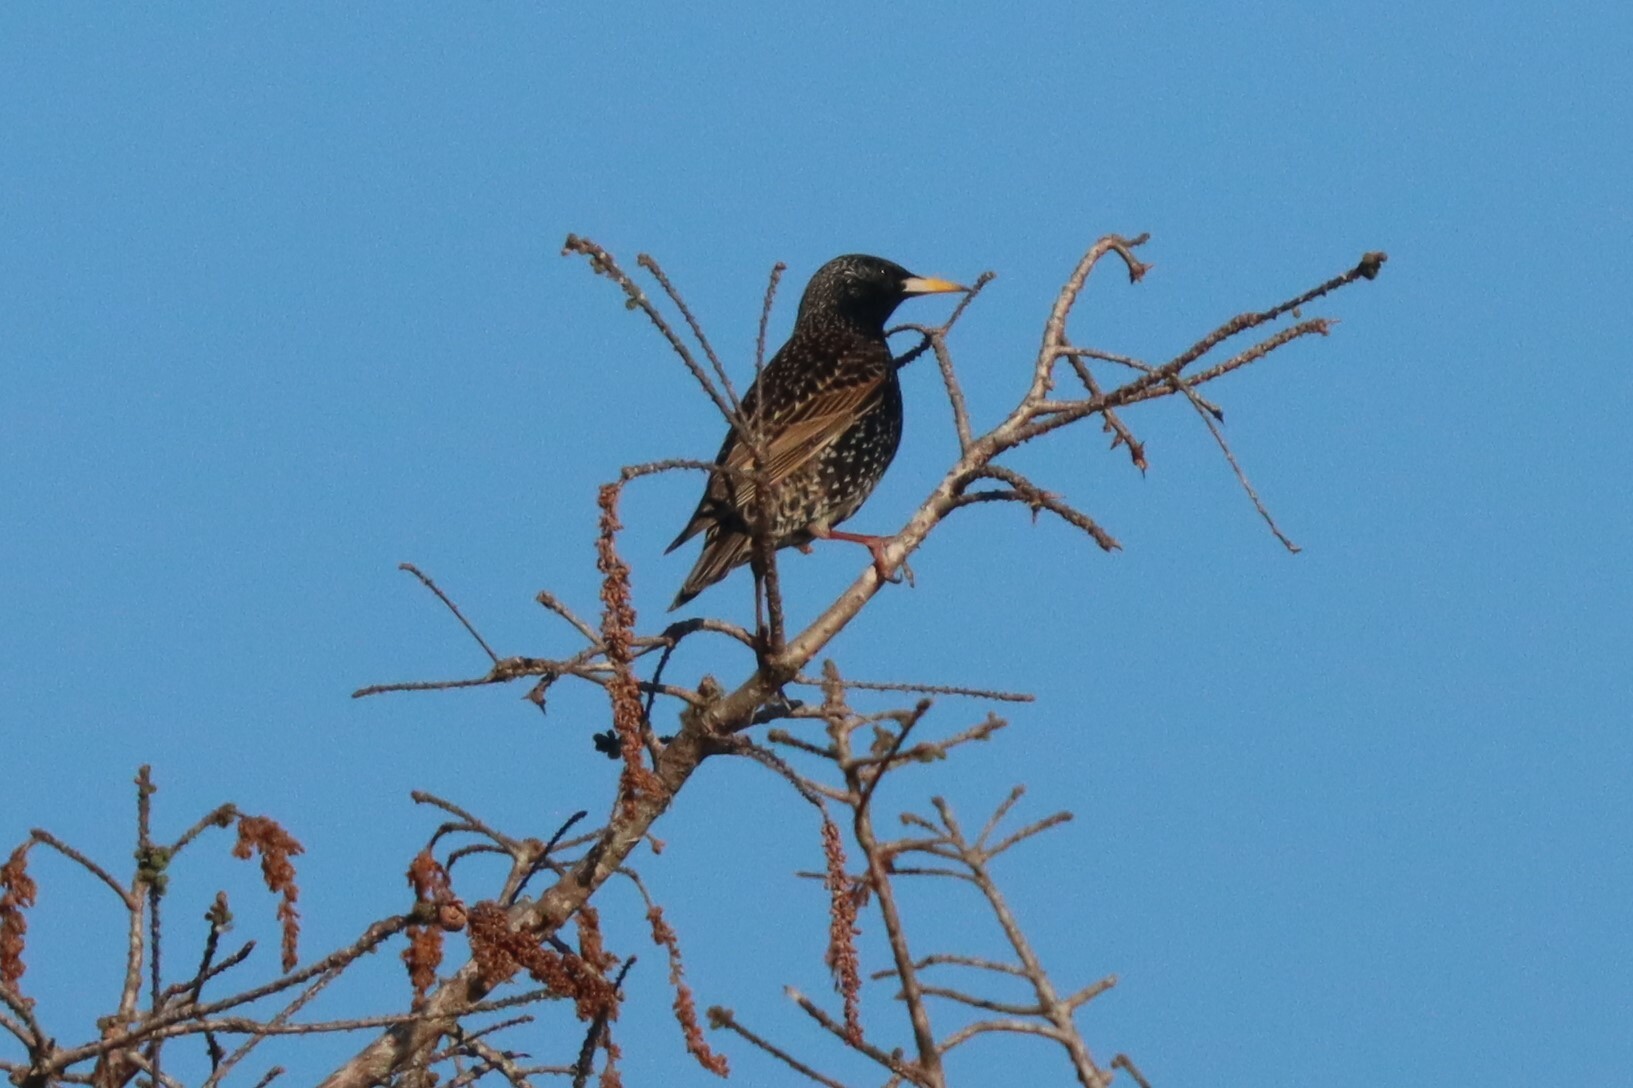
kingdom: Animalia
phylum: Chordata
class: Aves
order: Passeriformes
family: Sturnidae
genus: Sturnus
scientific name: Sturnus vulgaris
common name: Common starling
